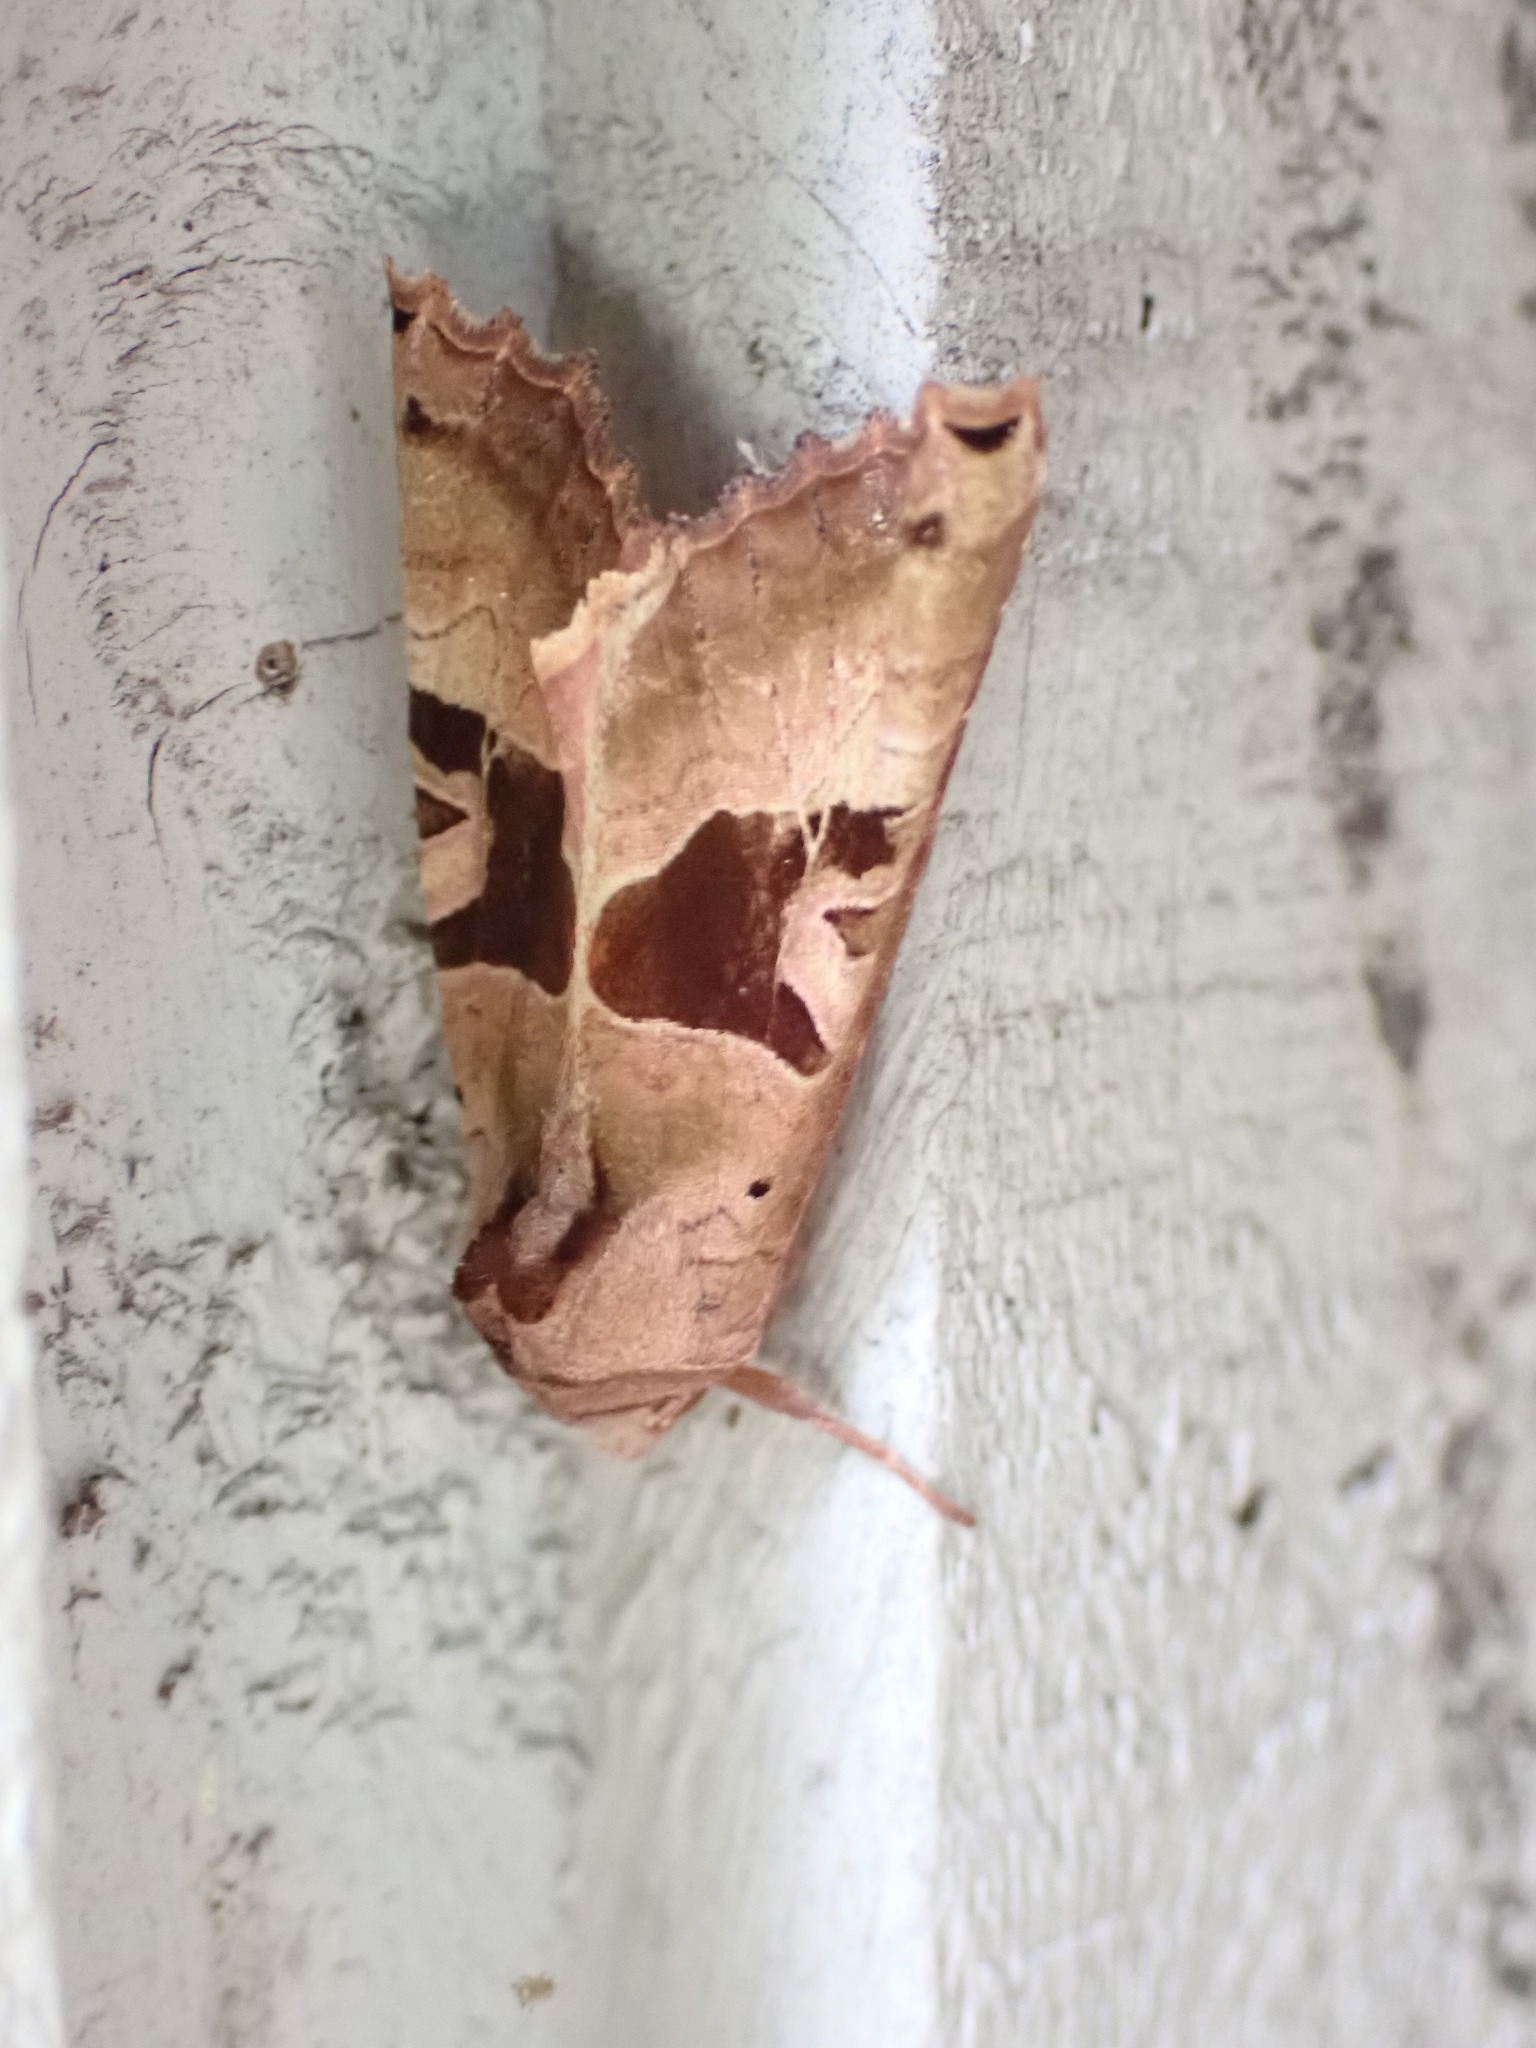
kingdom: Animalia
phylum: Arthropoda
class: Insecta
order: Lepidoptera
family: Noctuidae
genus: Phlogophora
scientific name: Phlogophora periculosa
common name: Brown angle shades
